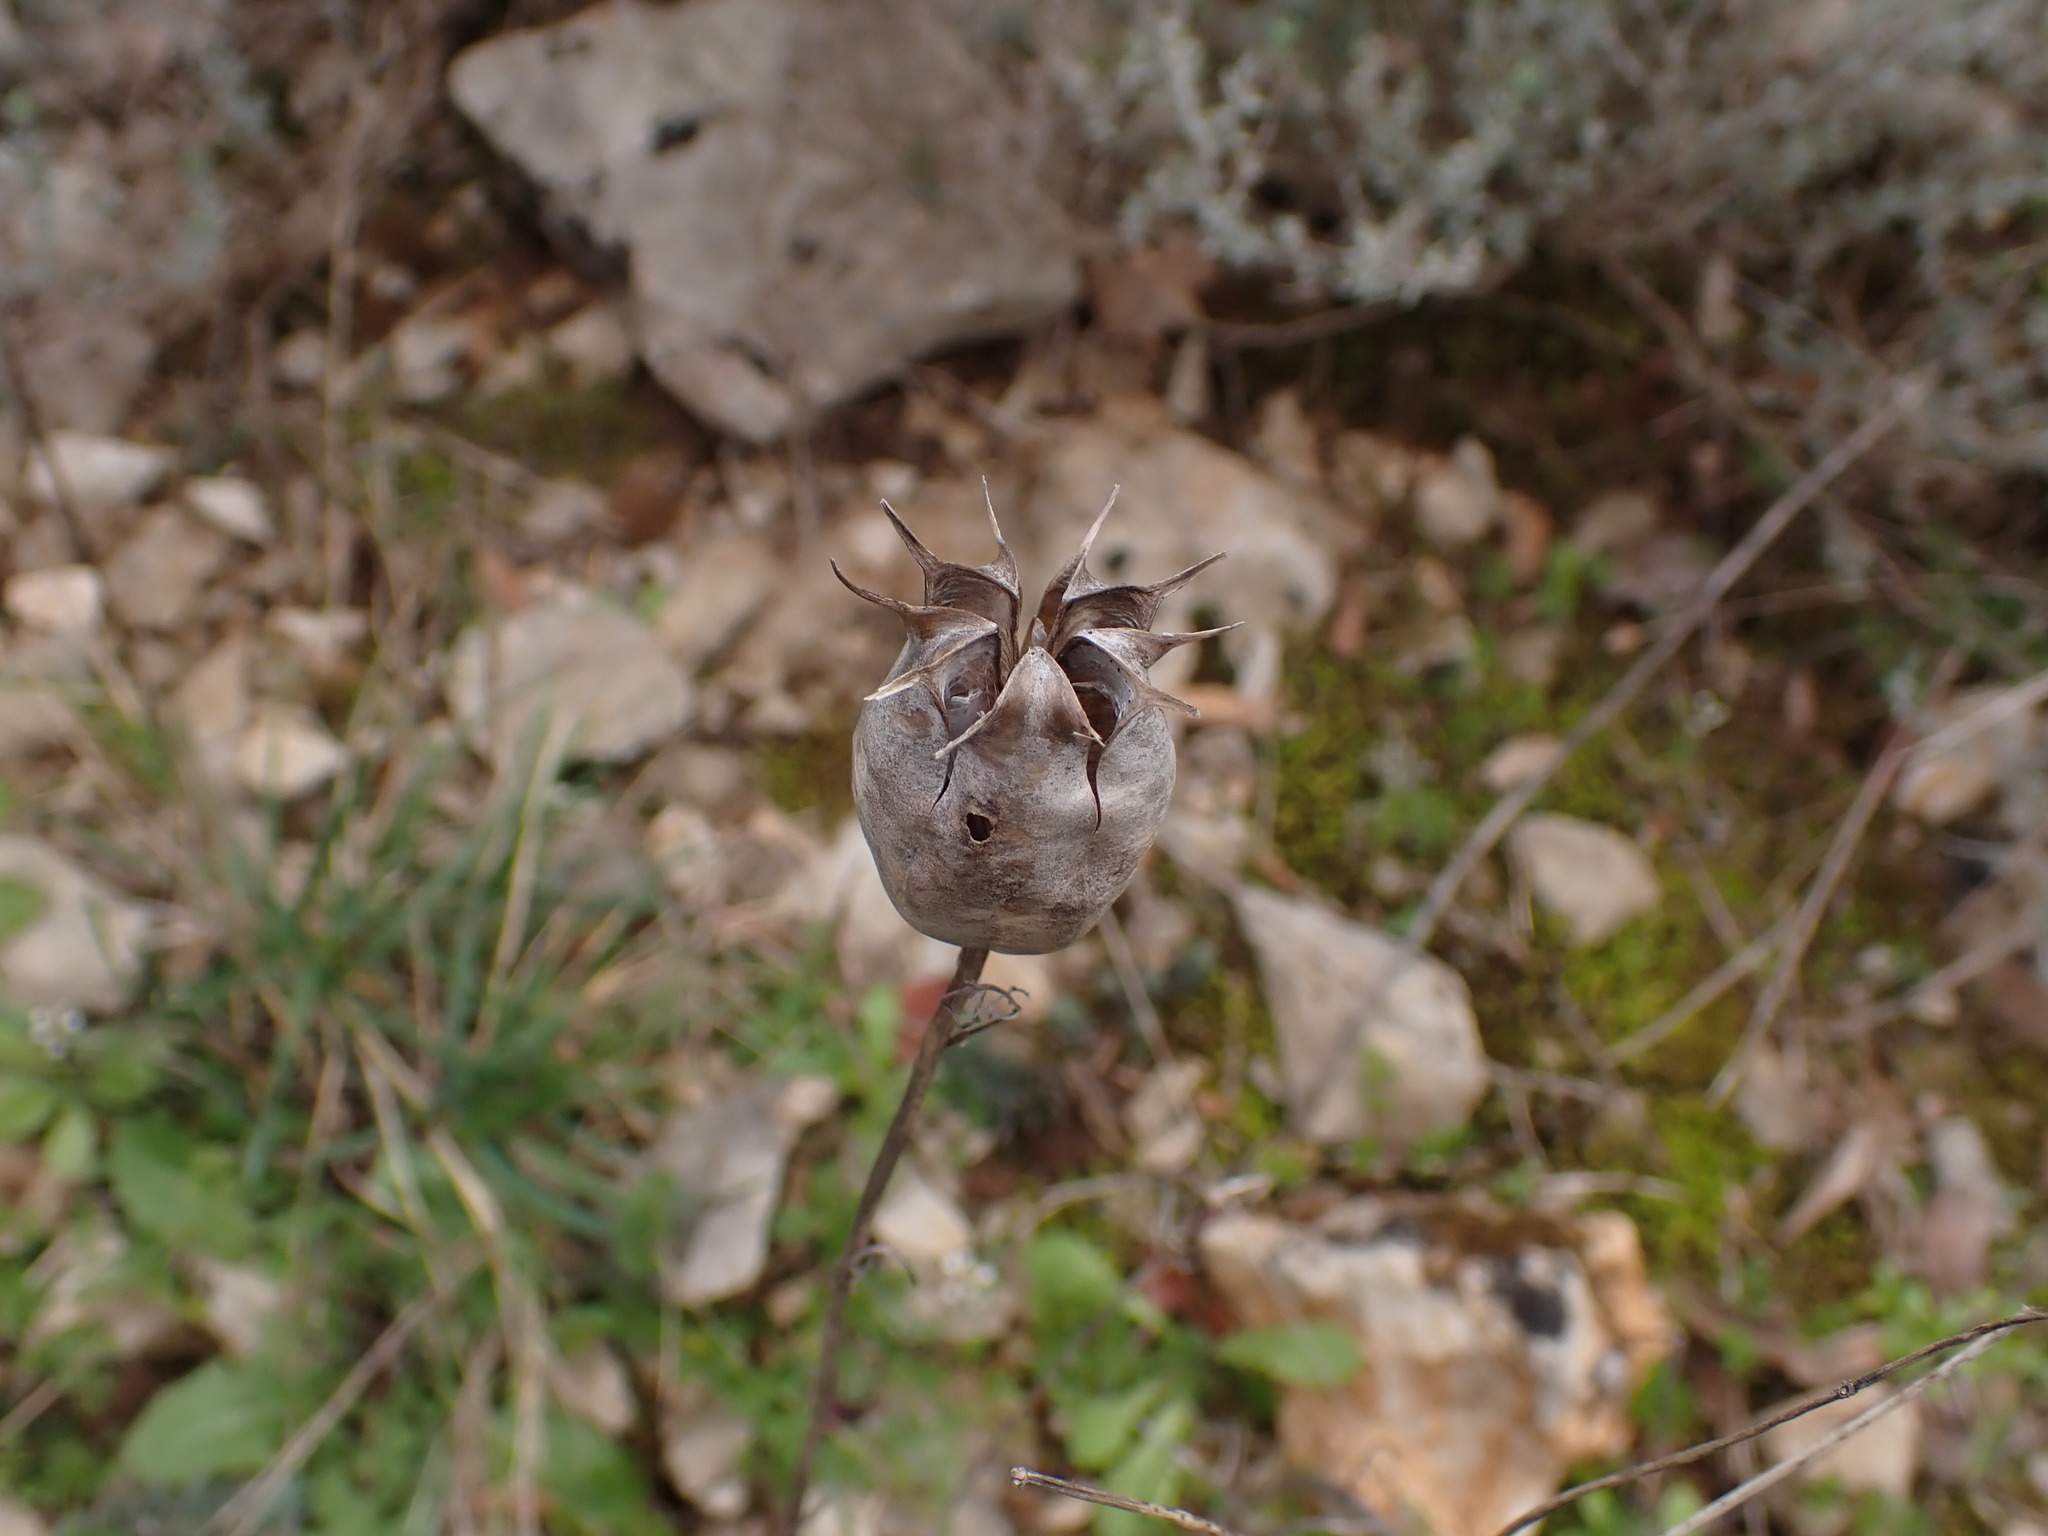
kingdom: Plantae
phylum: Tracheophyta
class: Magnoliopsida
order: Ranunculales
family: Ranunculaceae
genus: Nigella
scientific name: Nigella damascena
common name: Love-in-a-mist
